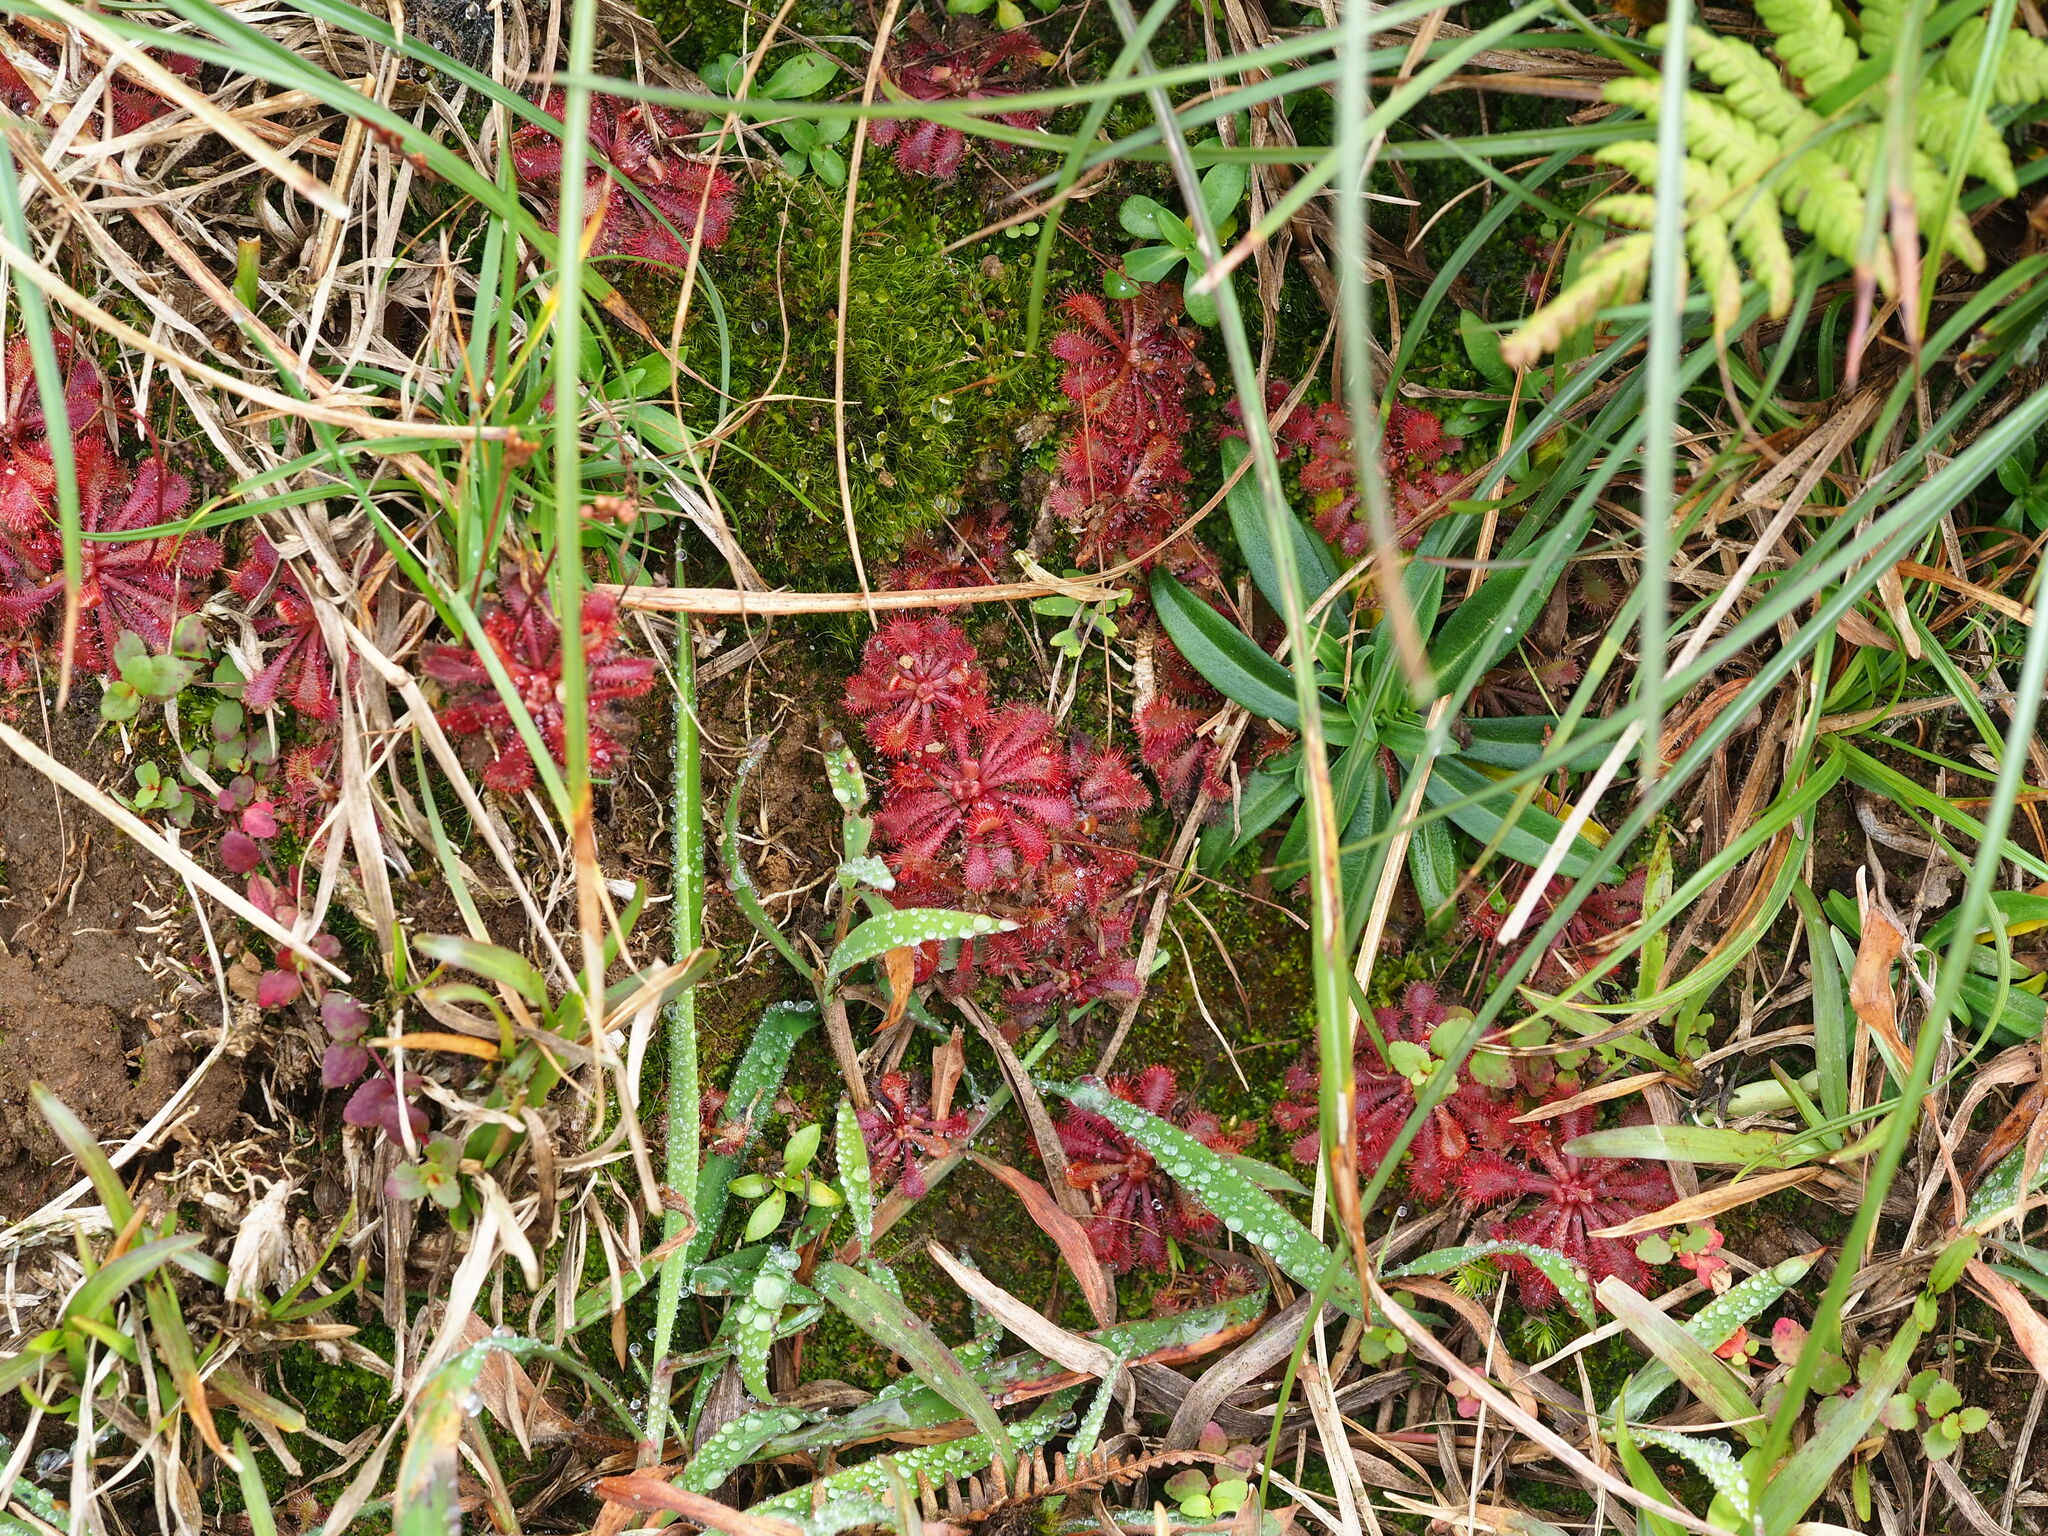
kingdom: Plantae
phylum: Tracheophyta
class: Magnoliopsida
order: Caryophyllales
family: Droseraceae
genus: Drosera
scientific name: Drosera spatulata
